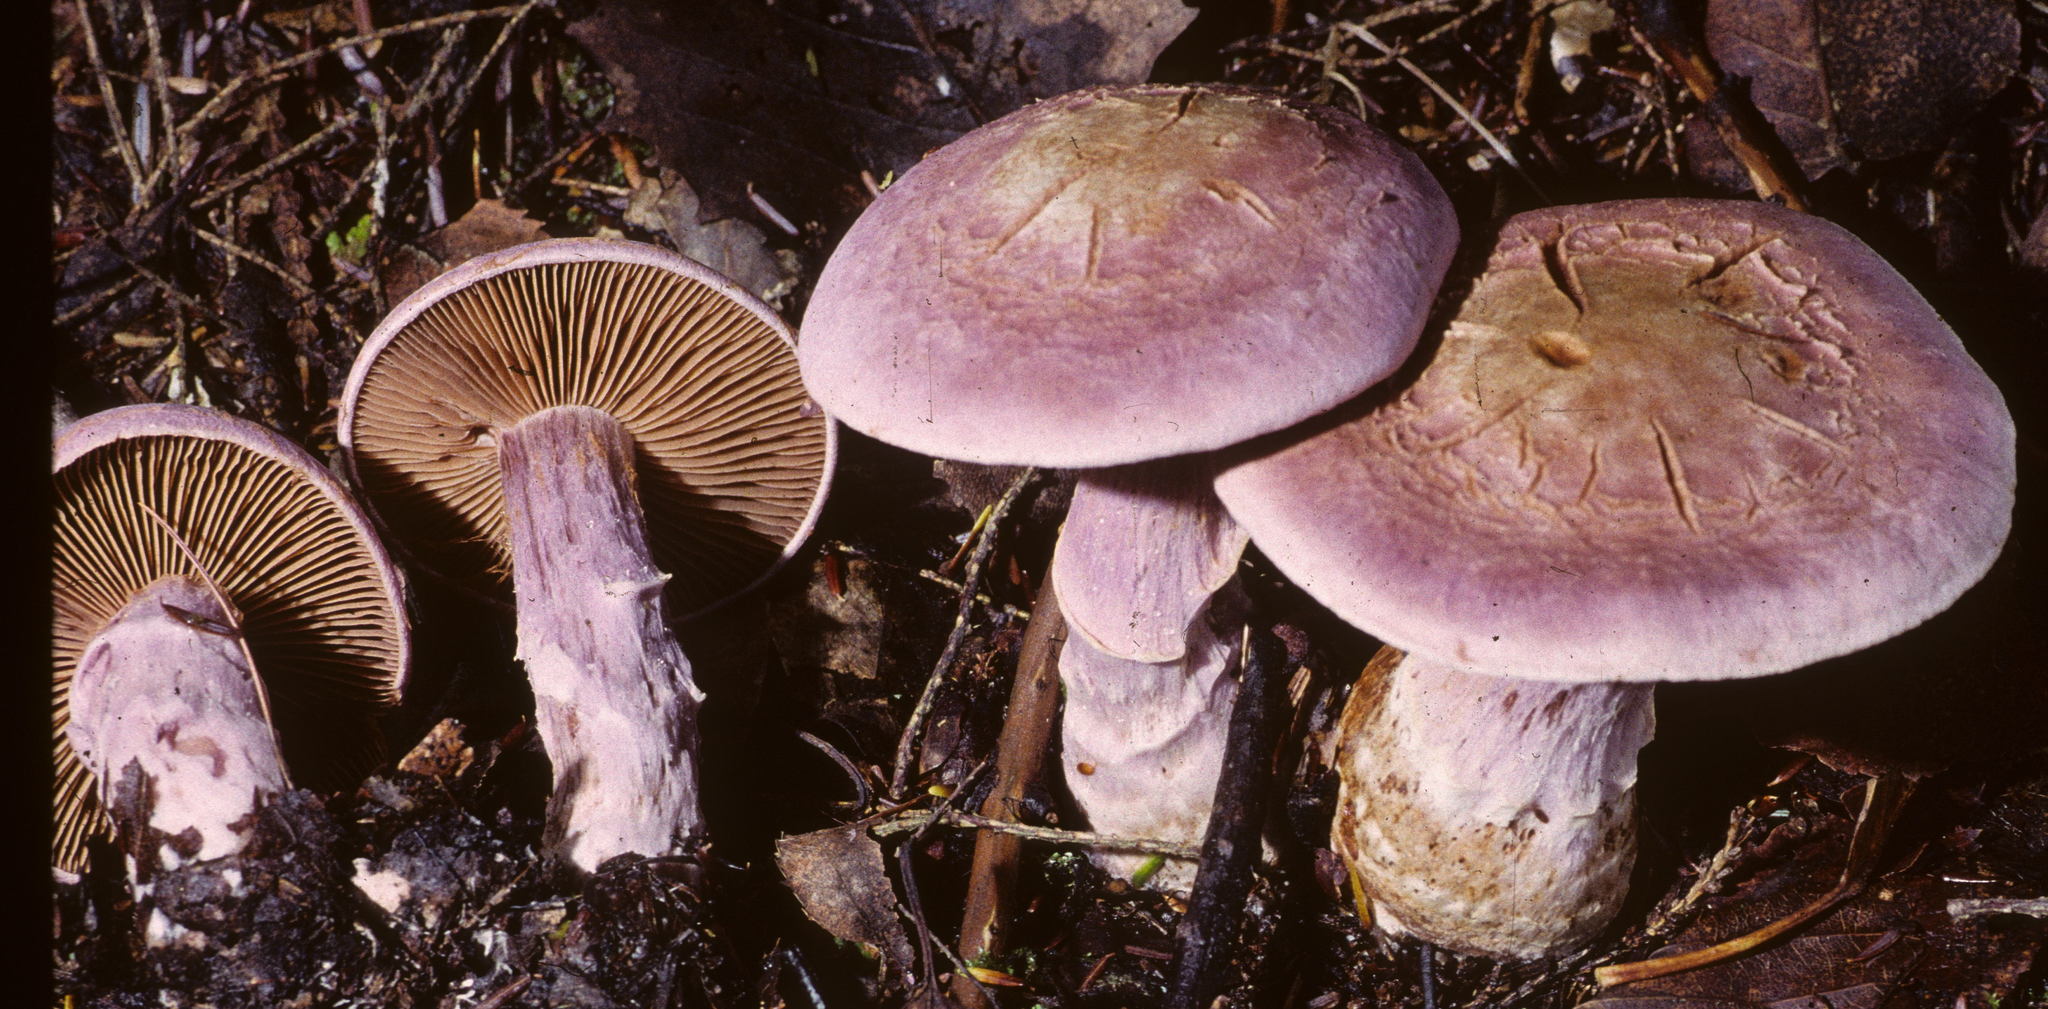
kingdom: Fungi
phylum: Basidiomycota
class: Agaricomycetes
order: Agaricales
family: Cortinariaceae
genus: Cortinarius
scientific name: Cortinarius traganus
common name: Gassy webcap
